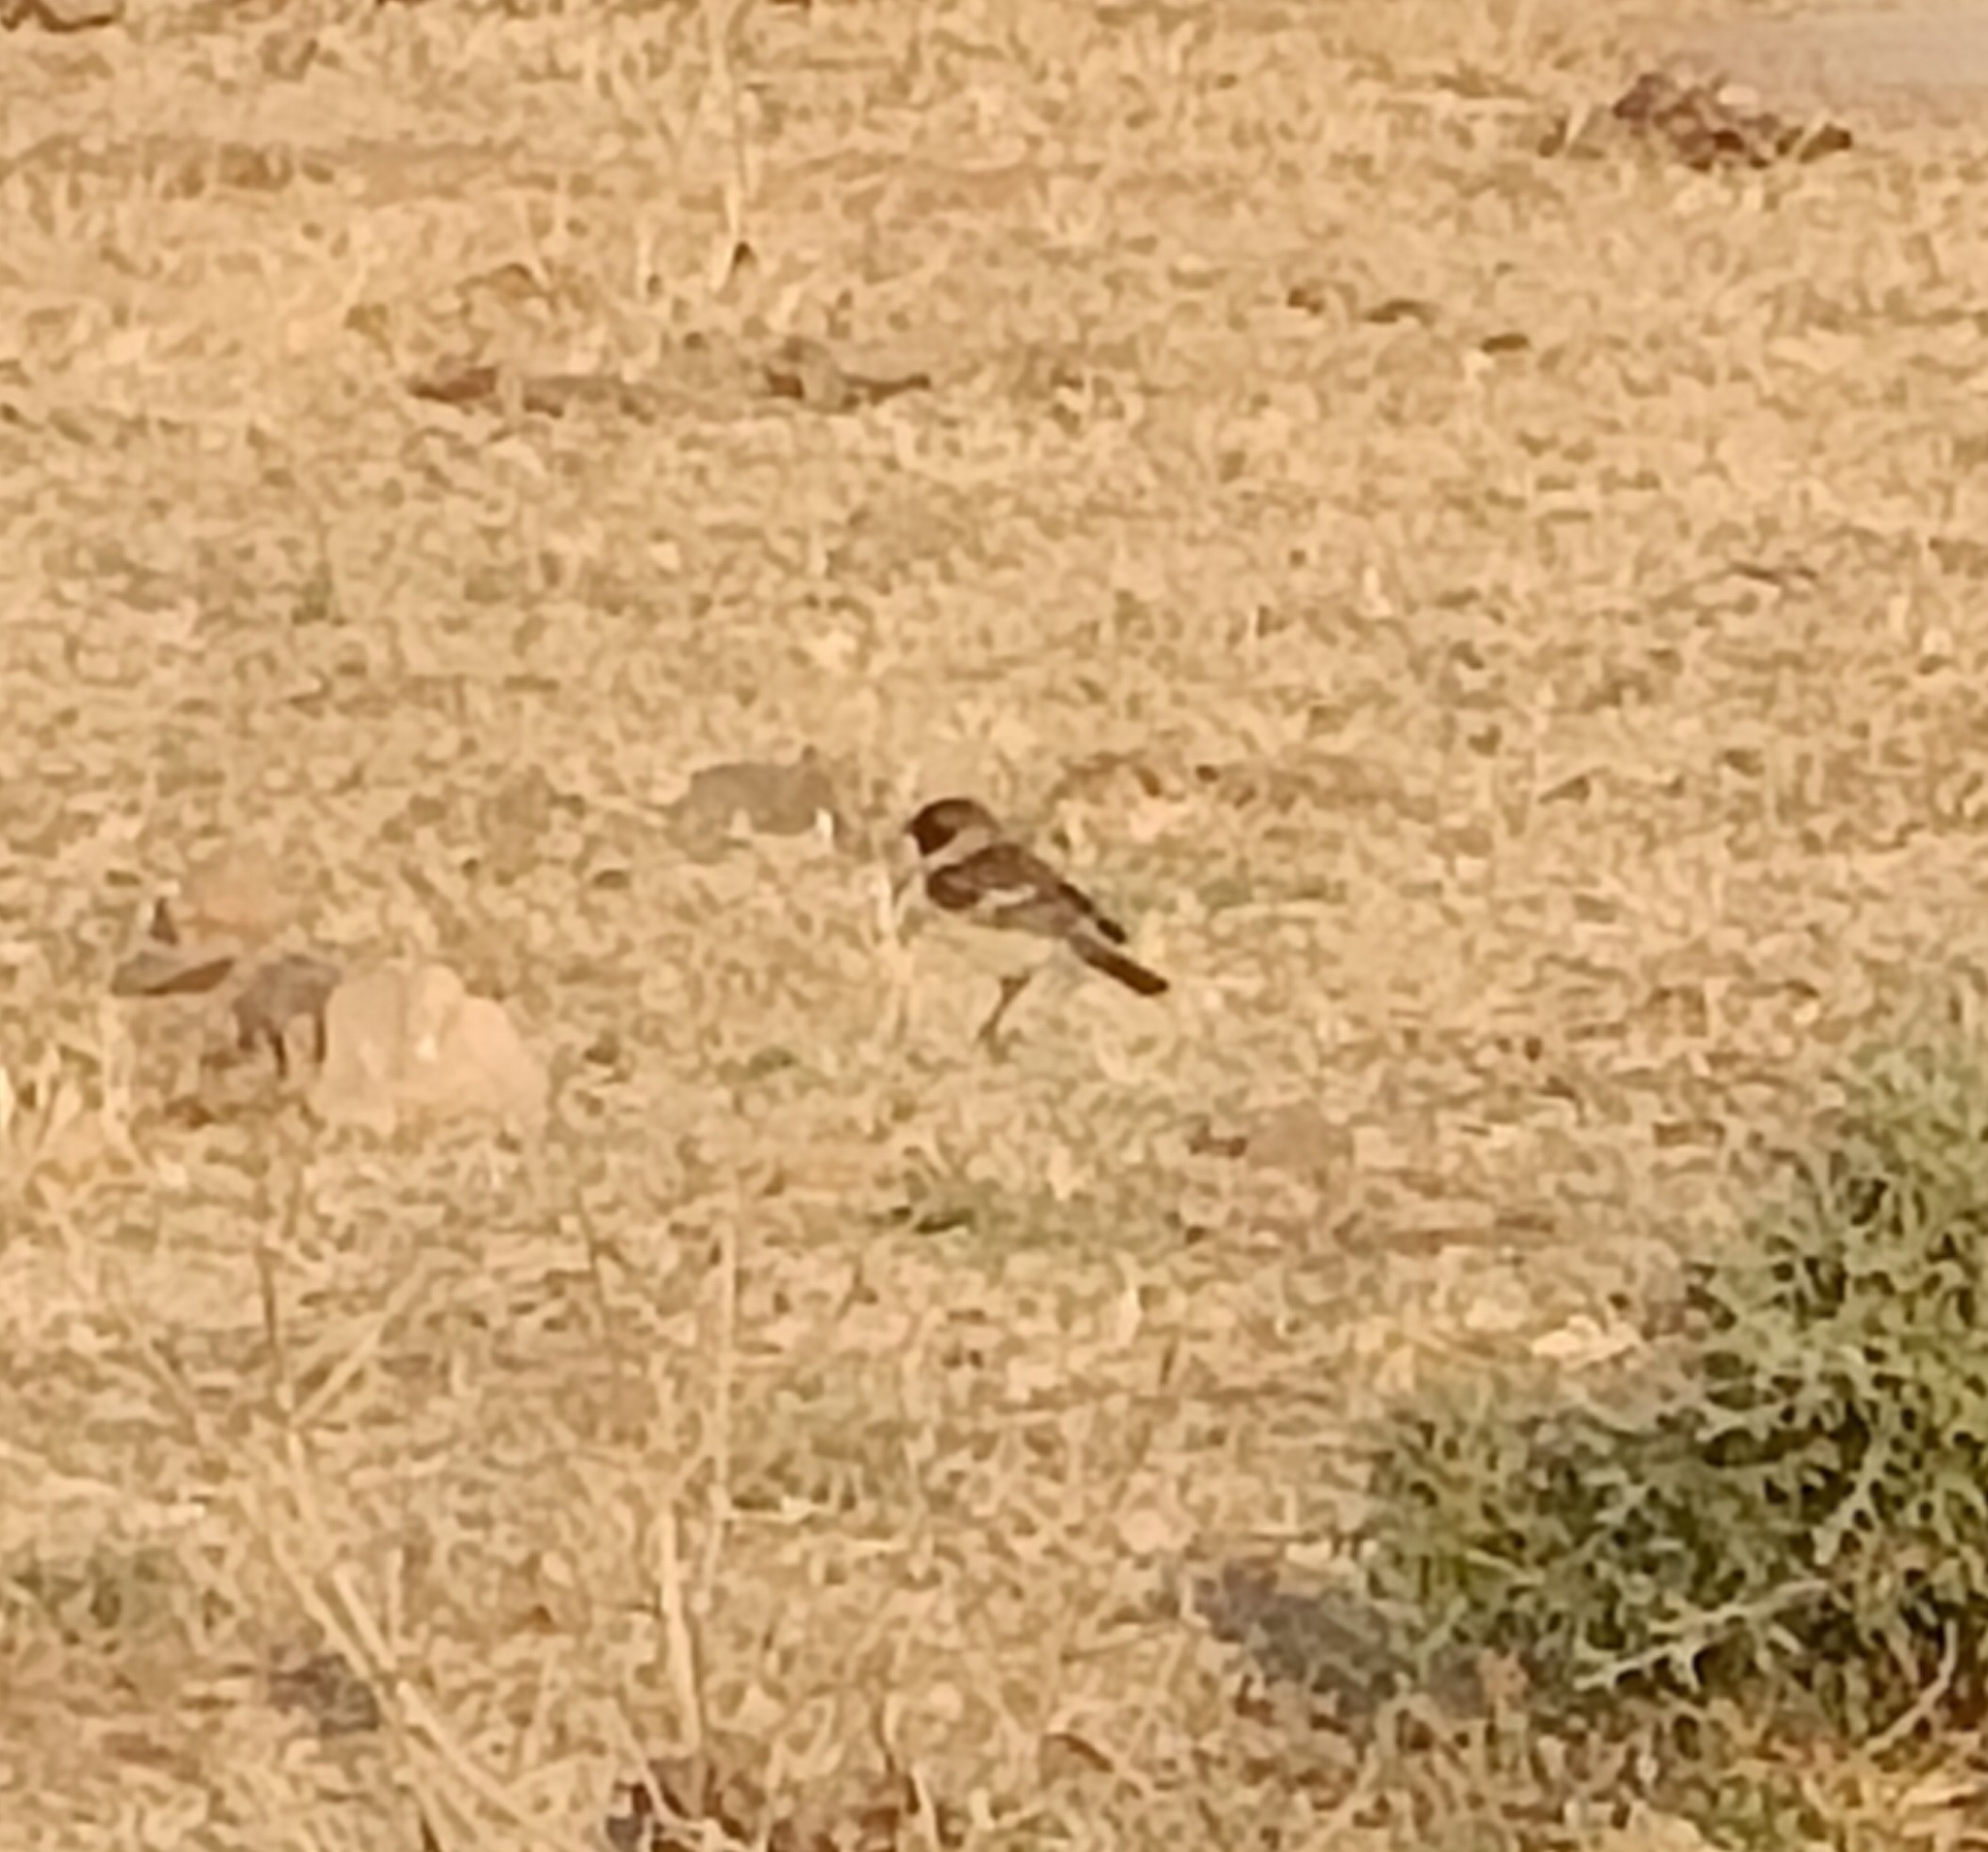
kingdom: Animalia
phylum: Chordata
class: Aves
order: Passeriformes
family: Muscicapidae
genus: Saxicola
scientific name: Saxicola maurus
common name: Siberian stonechat
